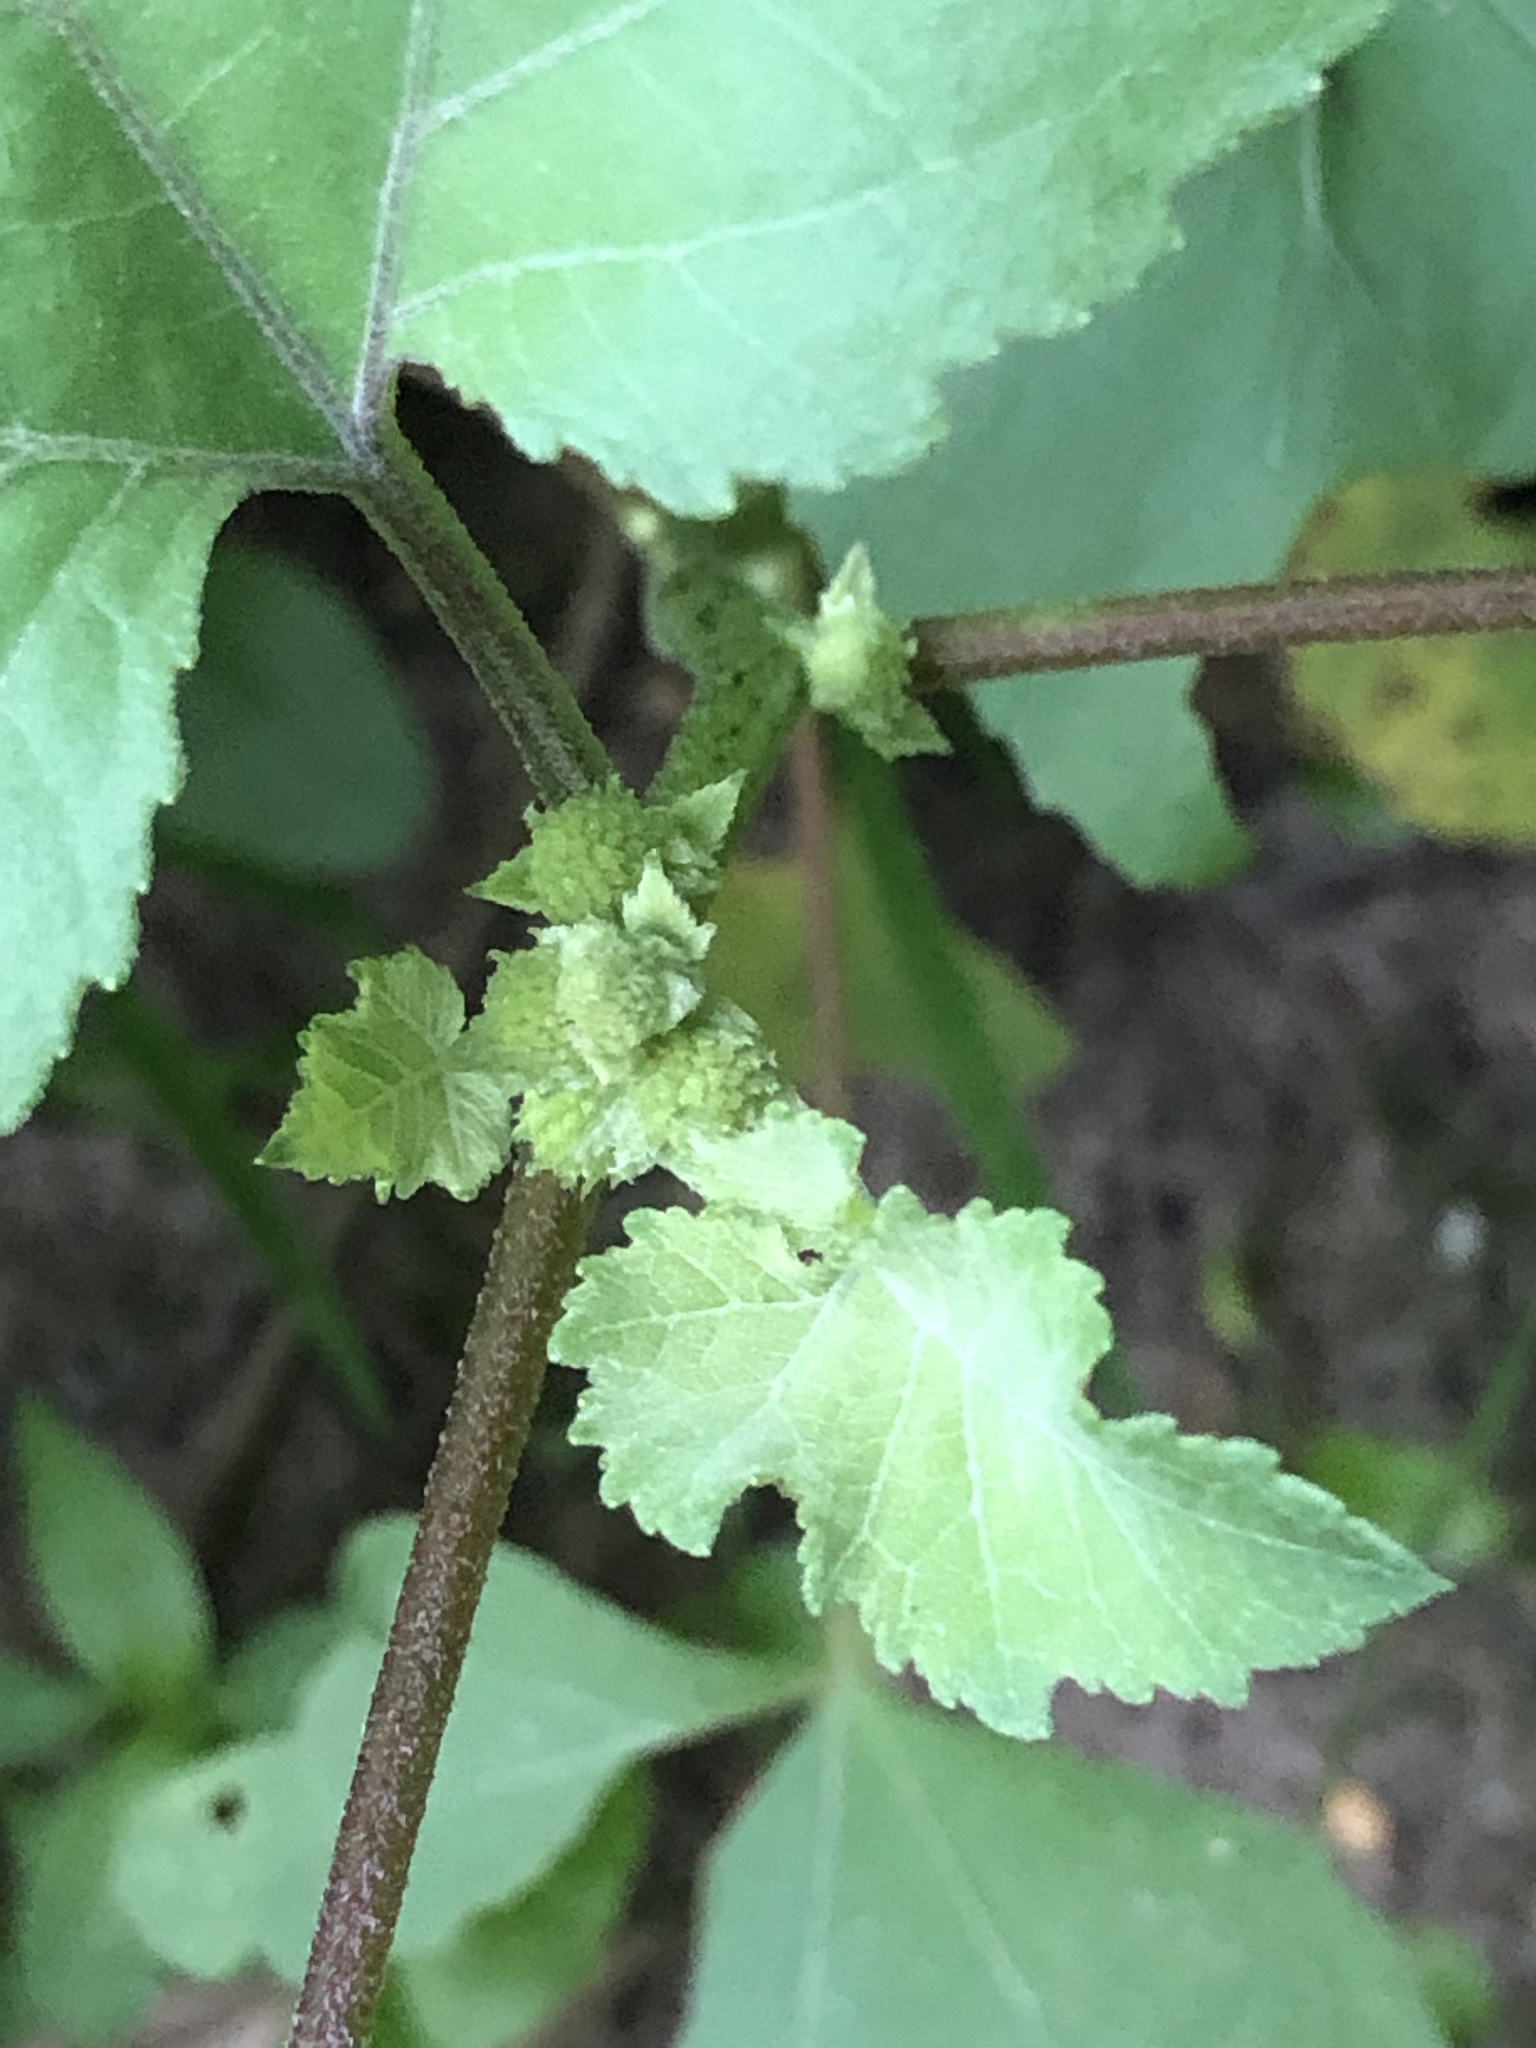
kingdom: Plantae
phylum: Tracheophyta
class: Magnoliopsida
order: Asterales
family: Asteraceae
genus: Xanthium
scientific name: Xanthium strumarium
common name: Rough cocklebur
